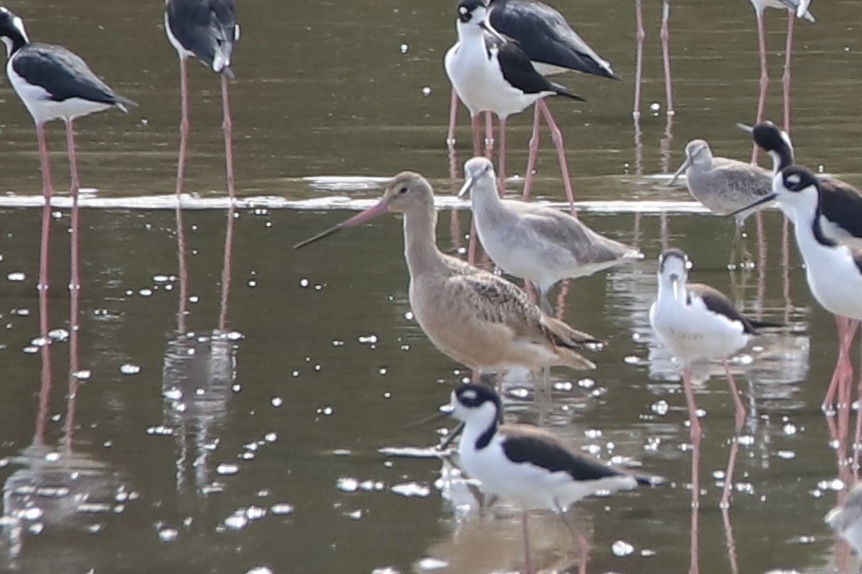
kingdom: Animalia
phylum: Chordata
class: Aves
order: Charadriiformes
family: Scolopacidae
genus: Limosa
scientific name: Limosa fedoa
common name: Marbled godwit
